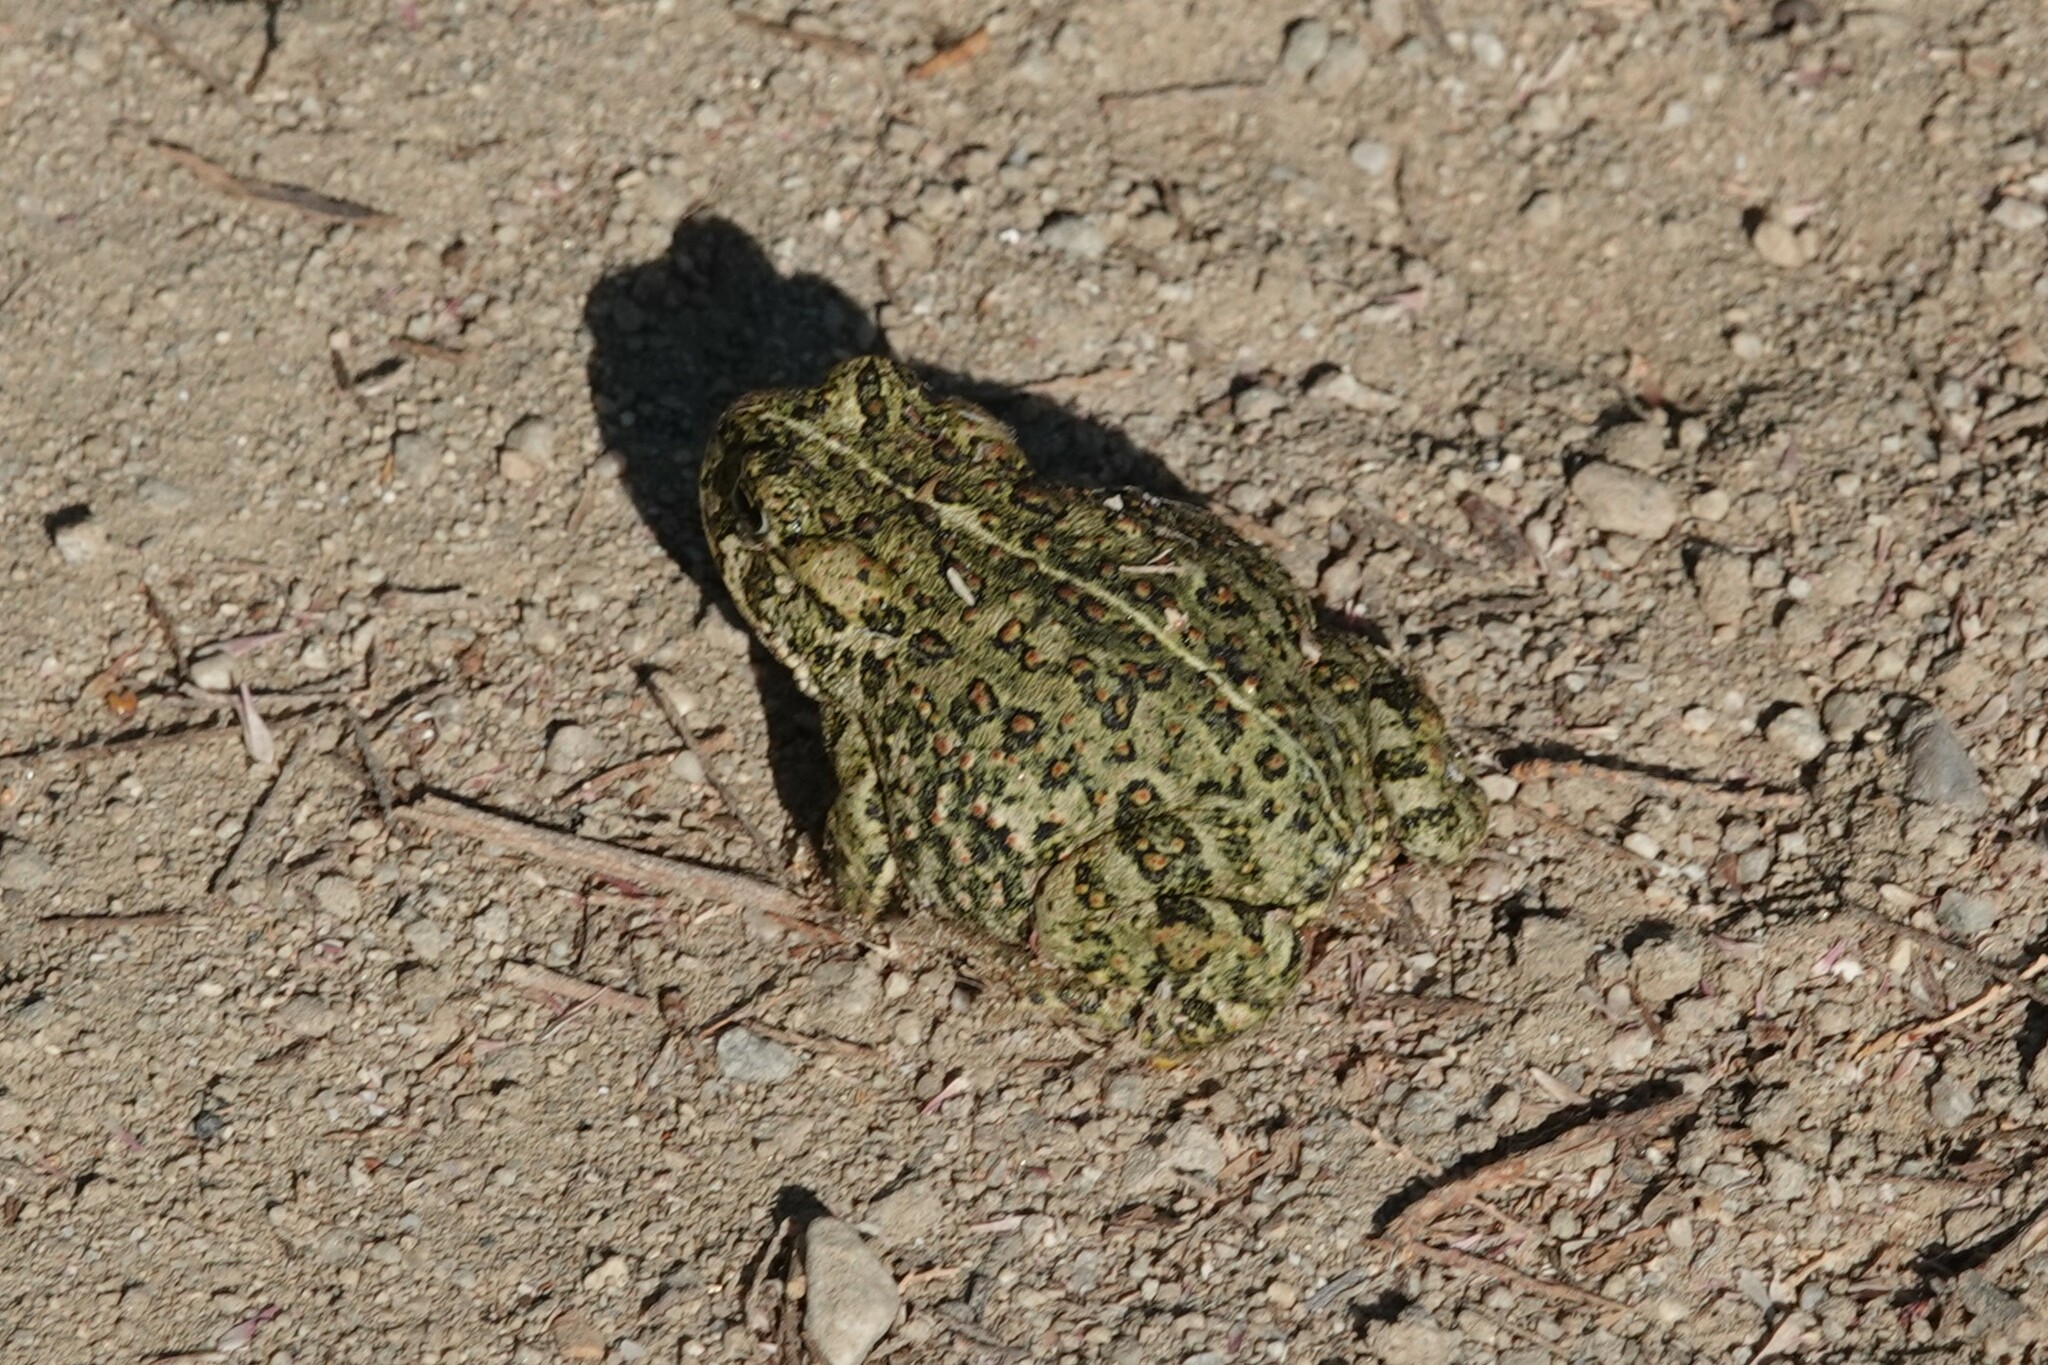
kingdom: Animalia
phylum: Chordata
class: Amphibia
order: Anura
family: Bufonidae
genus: Anaxyrus
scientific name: Anaxyrus boreas
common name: Western toad
